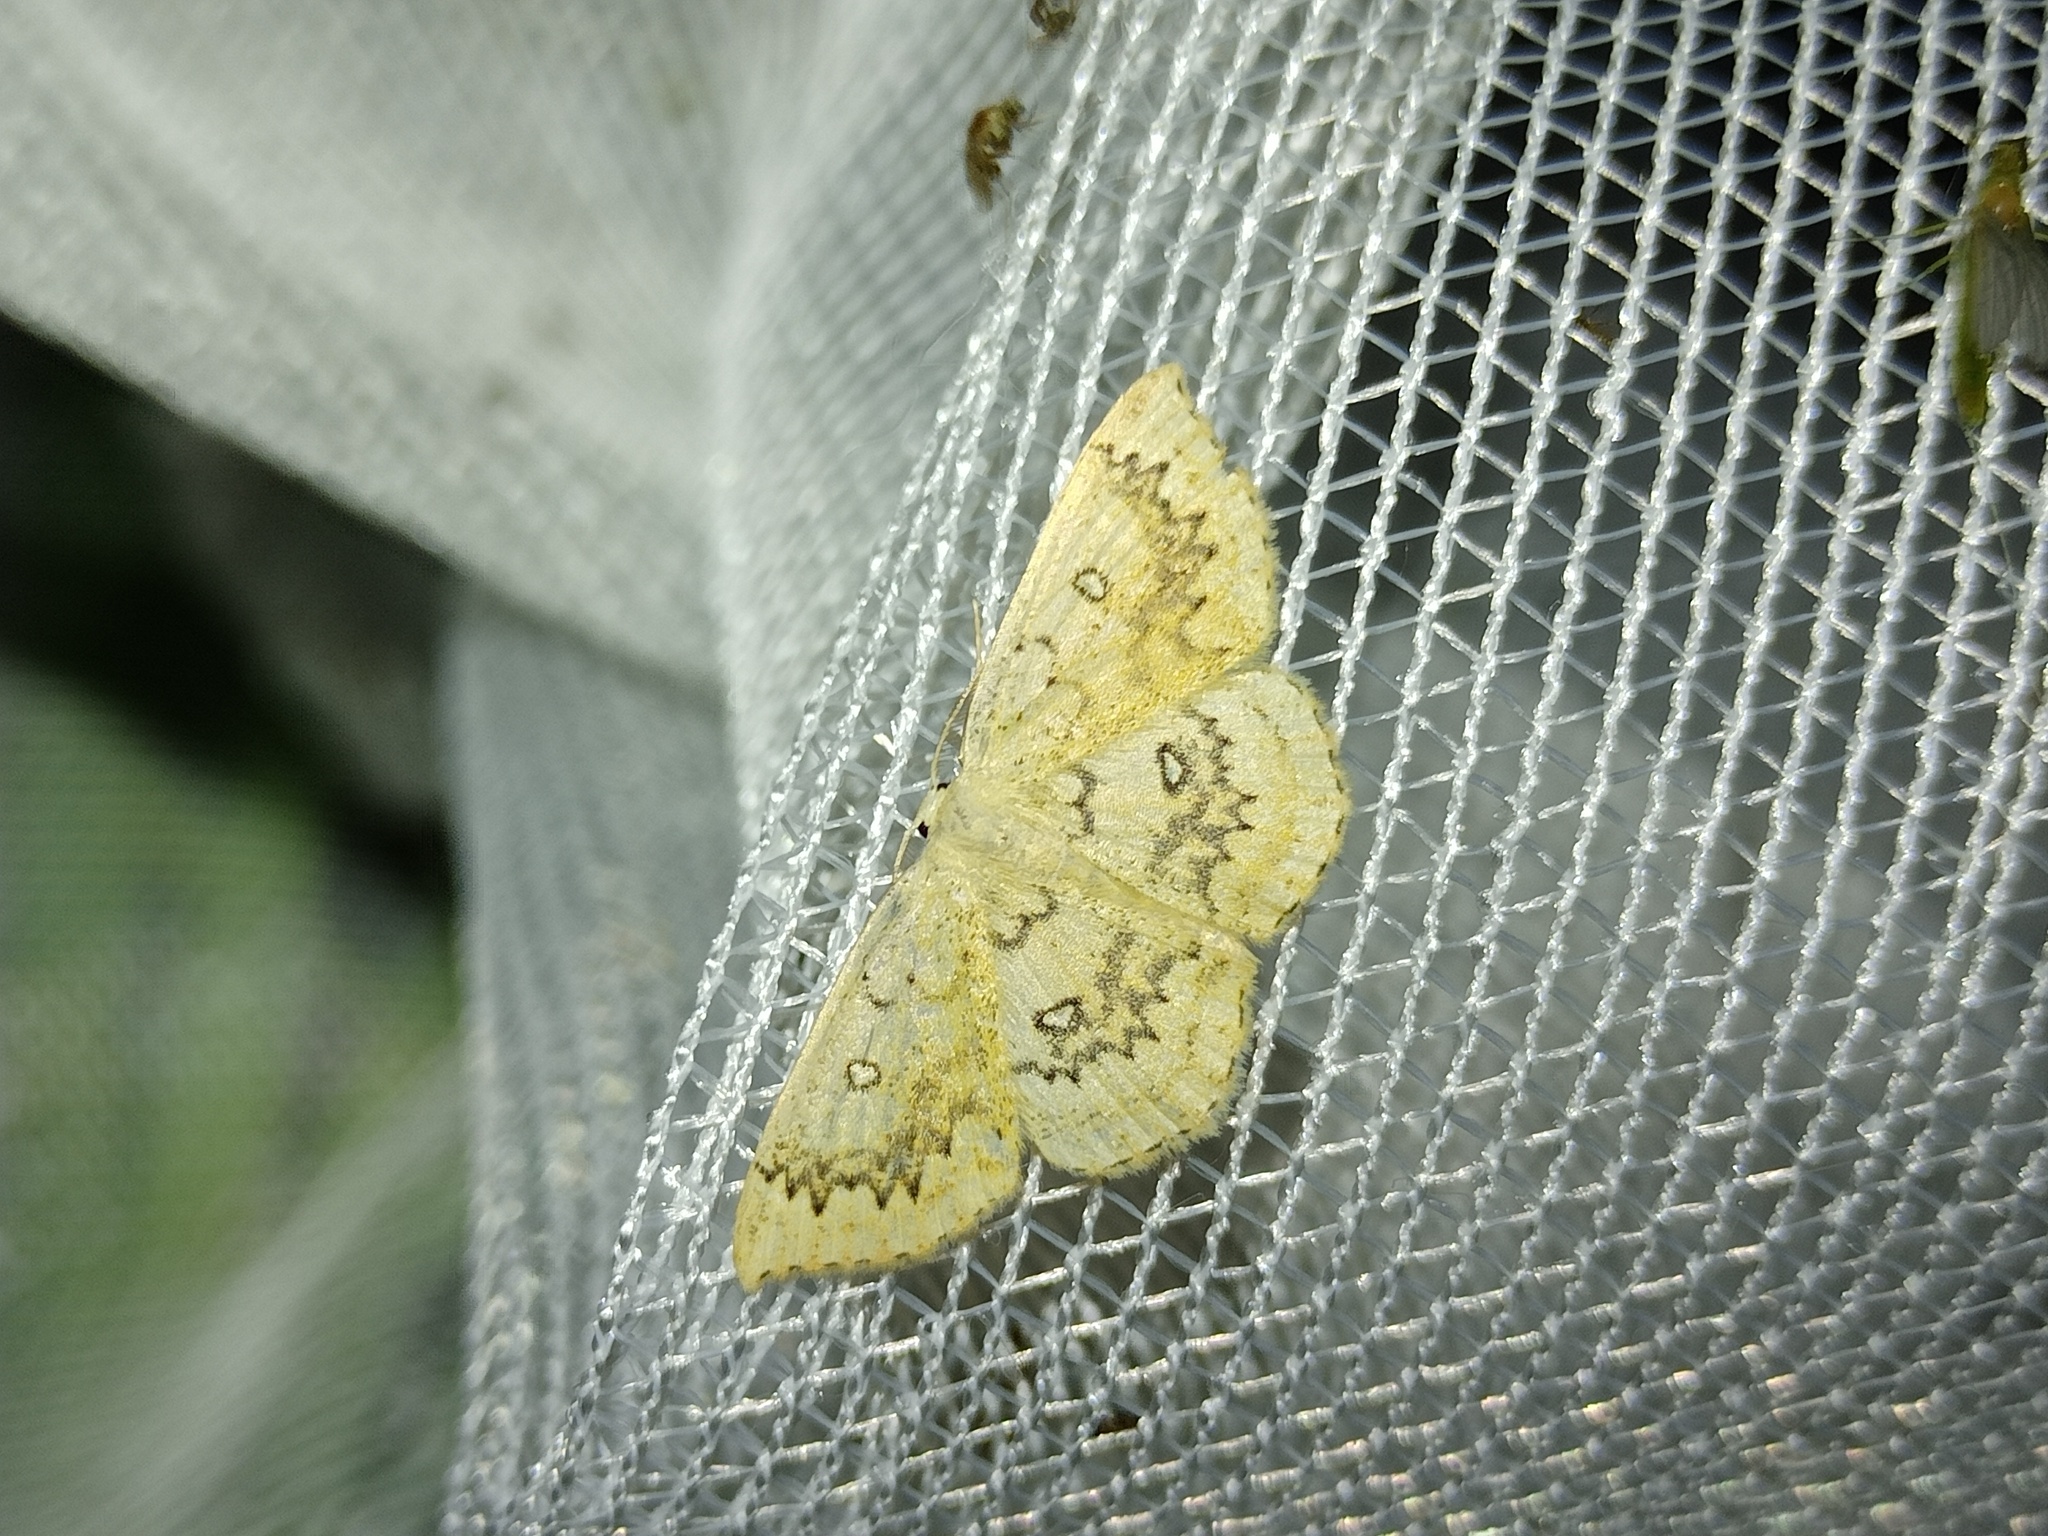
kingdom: Animalia
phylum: Arthropoda
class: Insecta
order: Lepidoptera
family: Geometridae
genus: Cyclophora
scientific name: Cyclophora annularia
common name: Mocha
